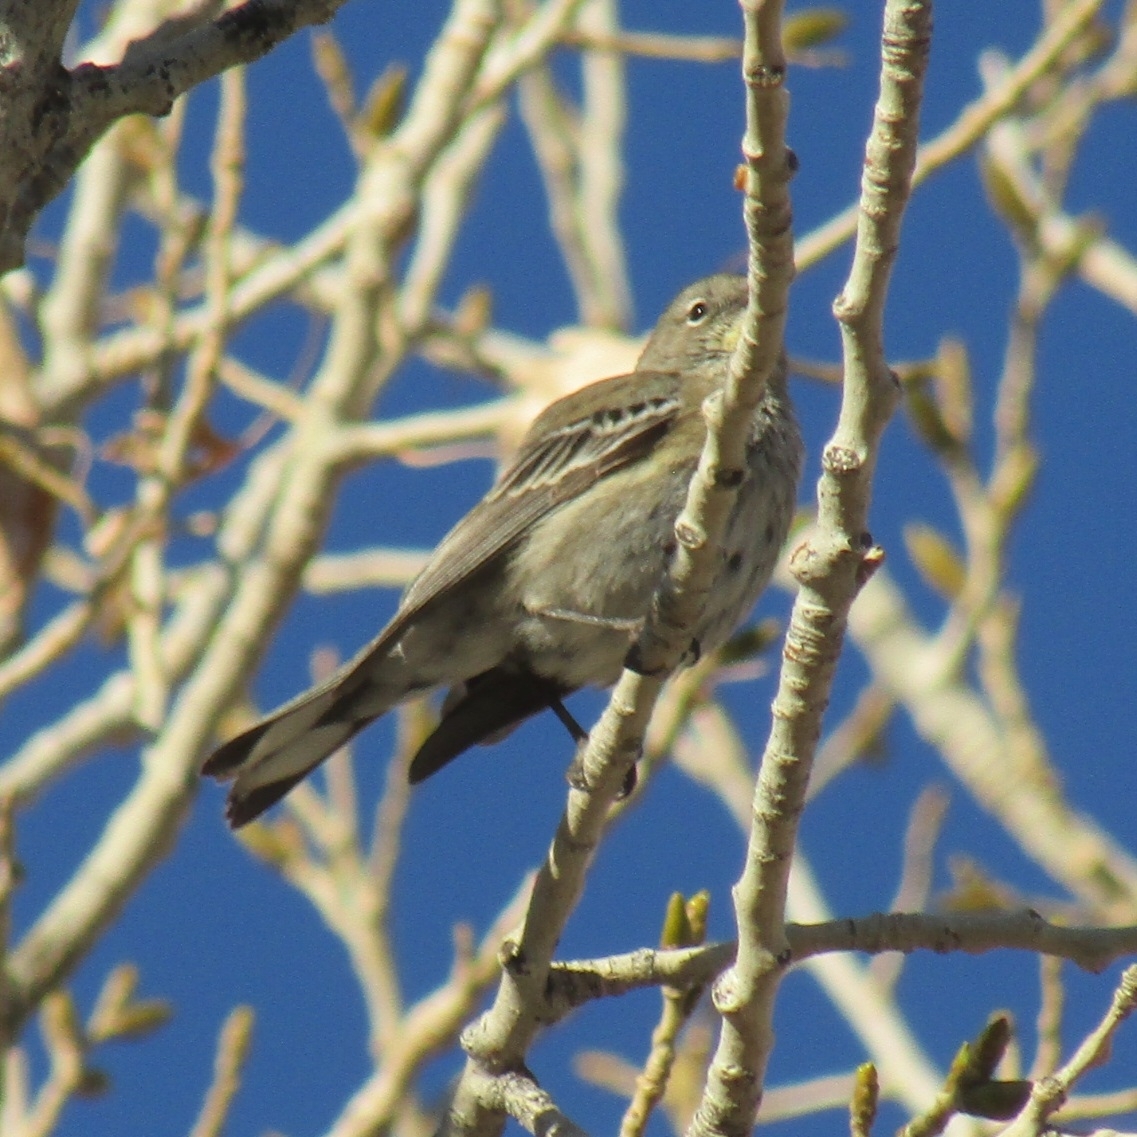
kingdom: Animalia
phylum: Chordata
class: Aves
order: Passeriformes
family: Parulidae
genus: Setophaga
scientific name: Setophaga coronata
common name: Myrtle warbler
